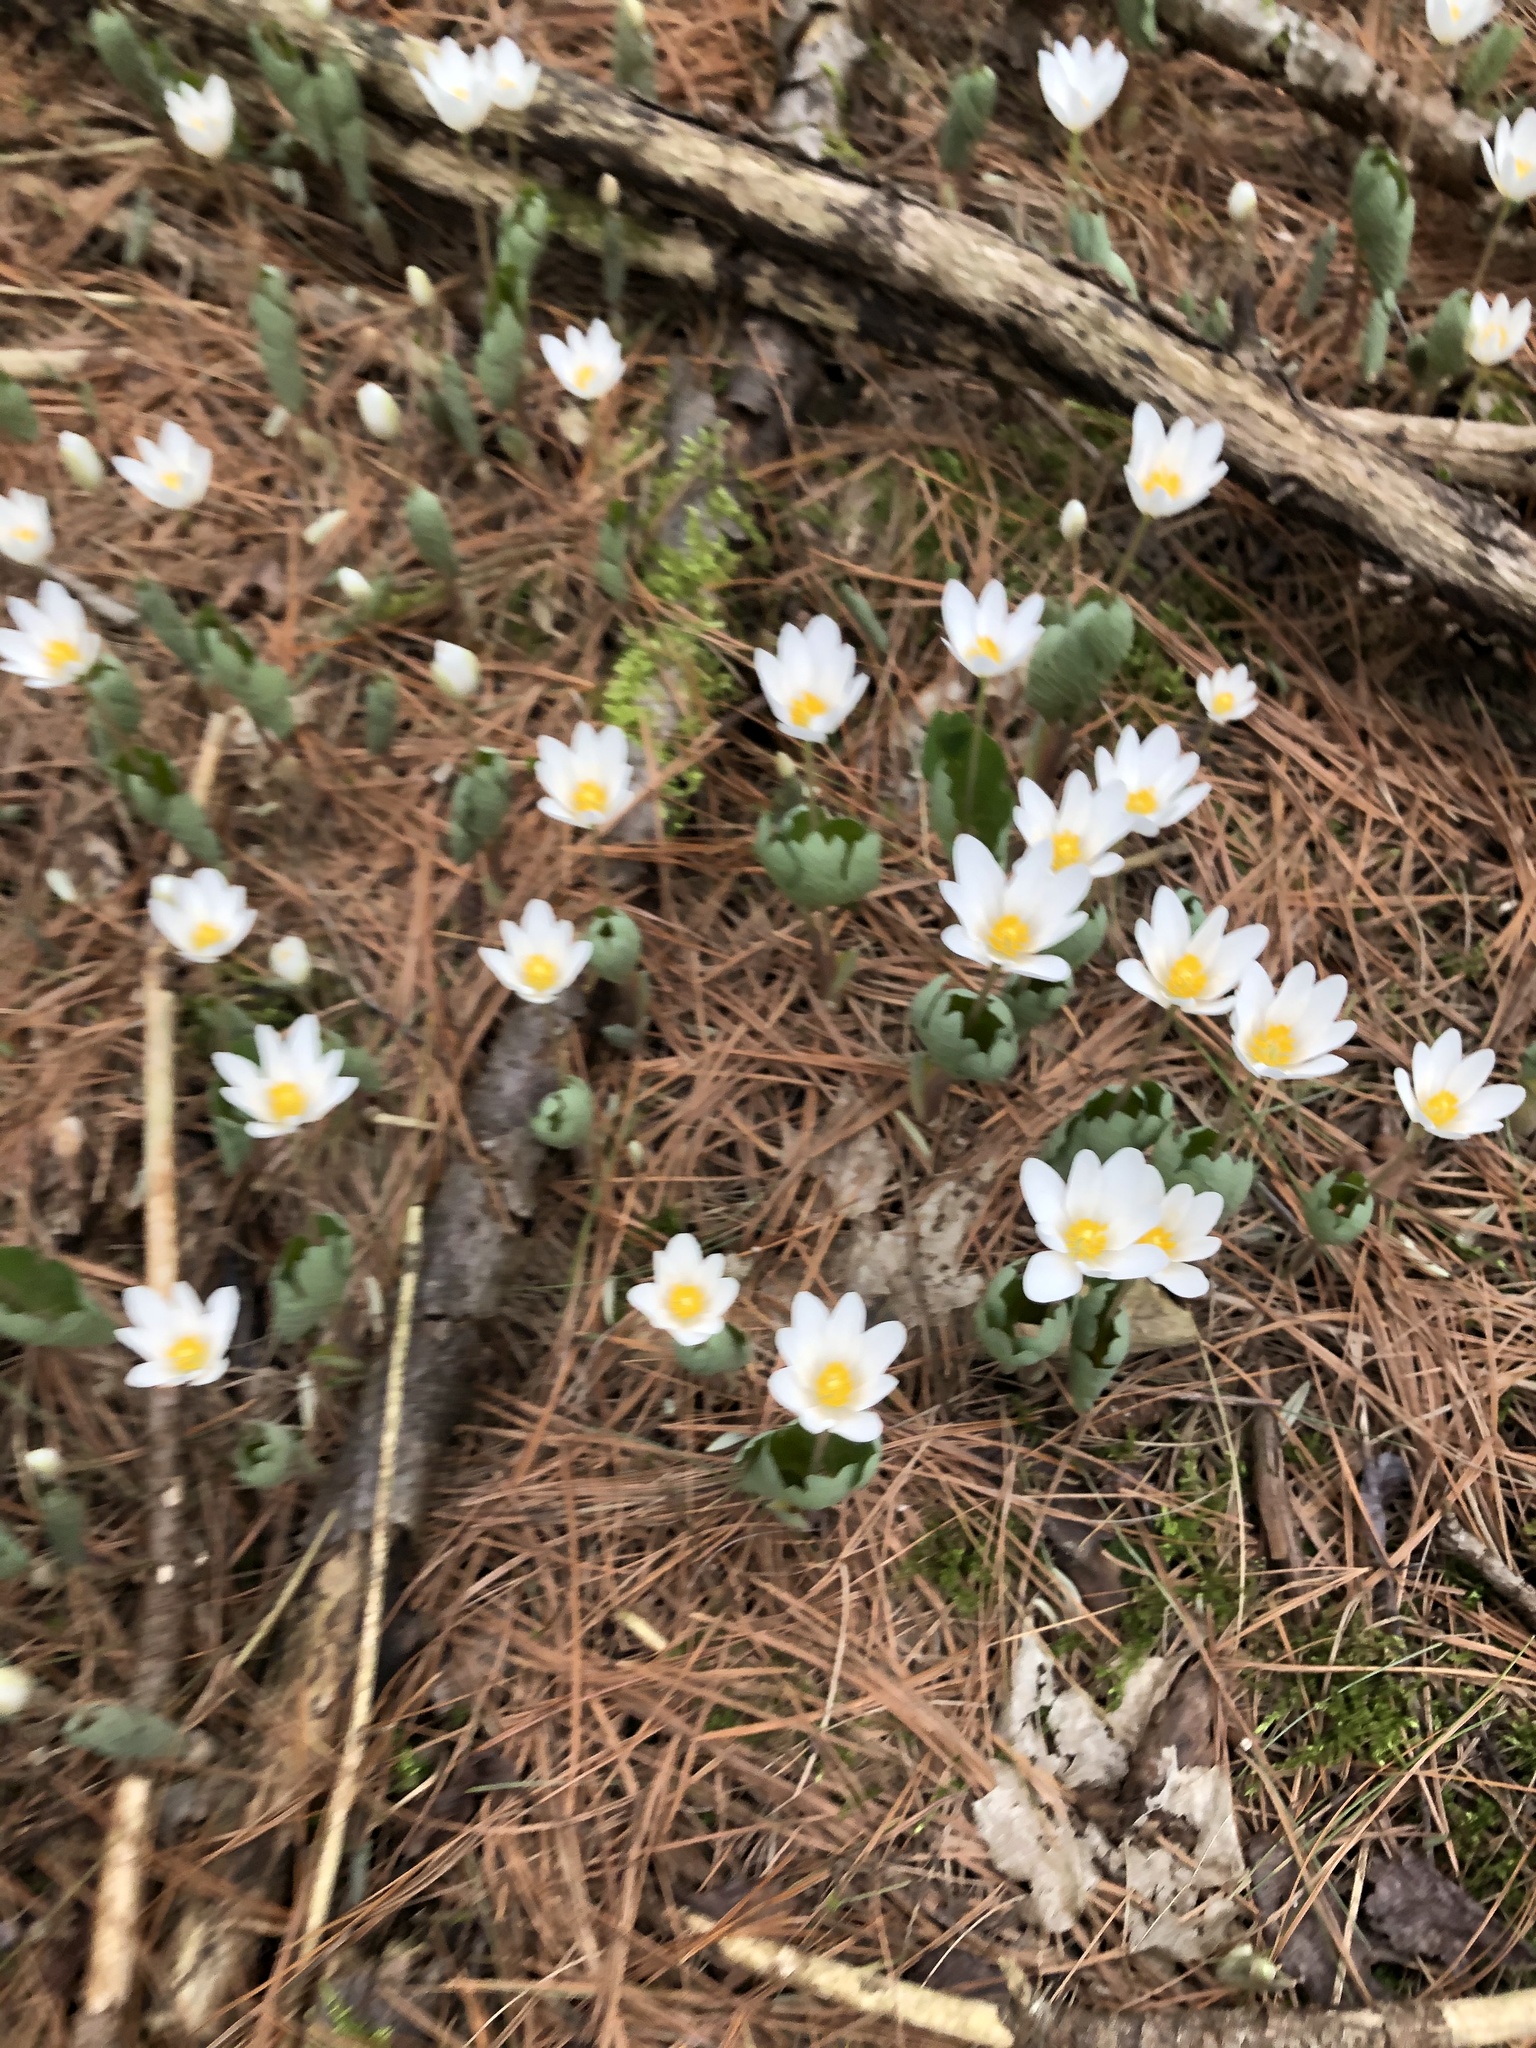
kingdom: Plantae
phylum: Tracheophyta
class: Magnoliopsida
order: Ranunculales
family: Papaveraceae
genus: Sanguinaria
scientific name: Sanguinaria canadensis
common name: Bloodroot
